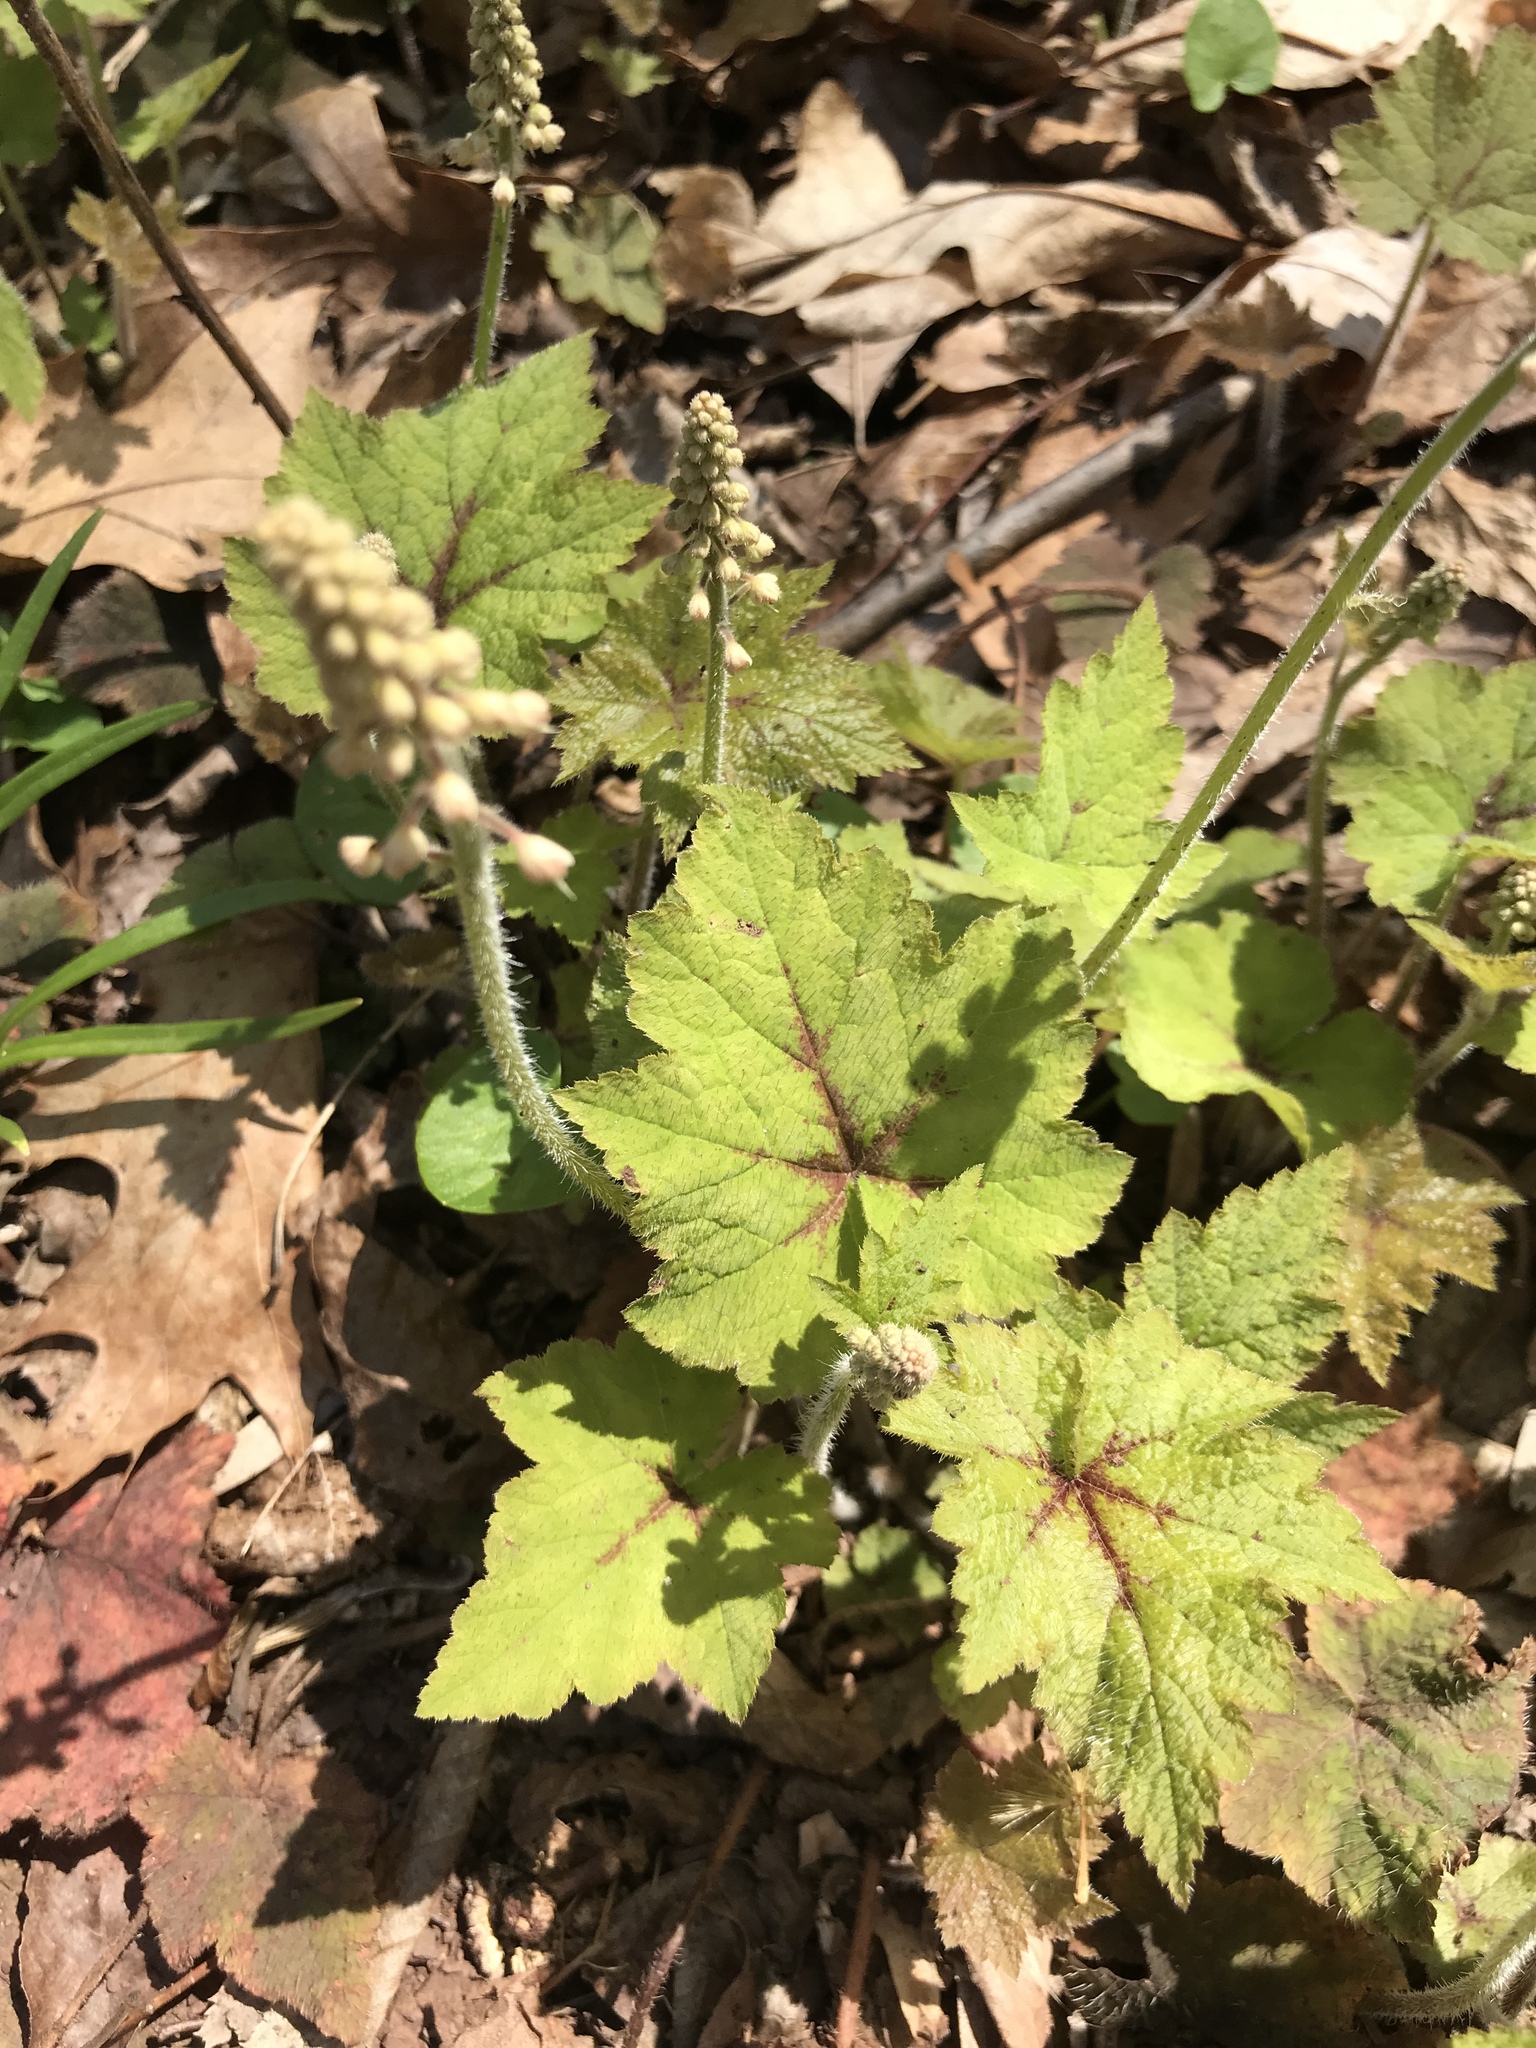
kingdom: Plantae
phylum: Tracheophyta
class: Magnoliopsida
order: Saxifragales
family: Saxifragaceae
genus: Tiarella
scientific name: Tiarella stolonifera
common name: Stoloniferous foamflower
